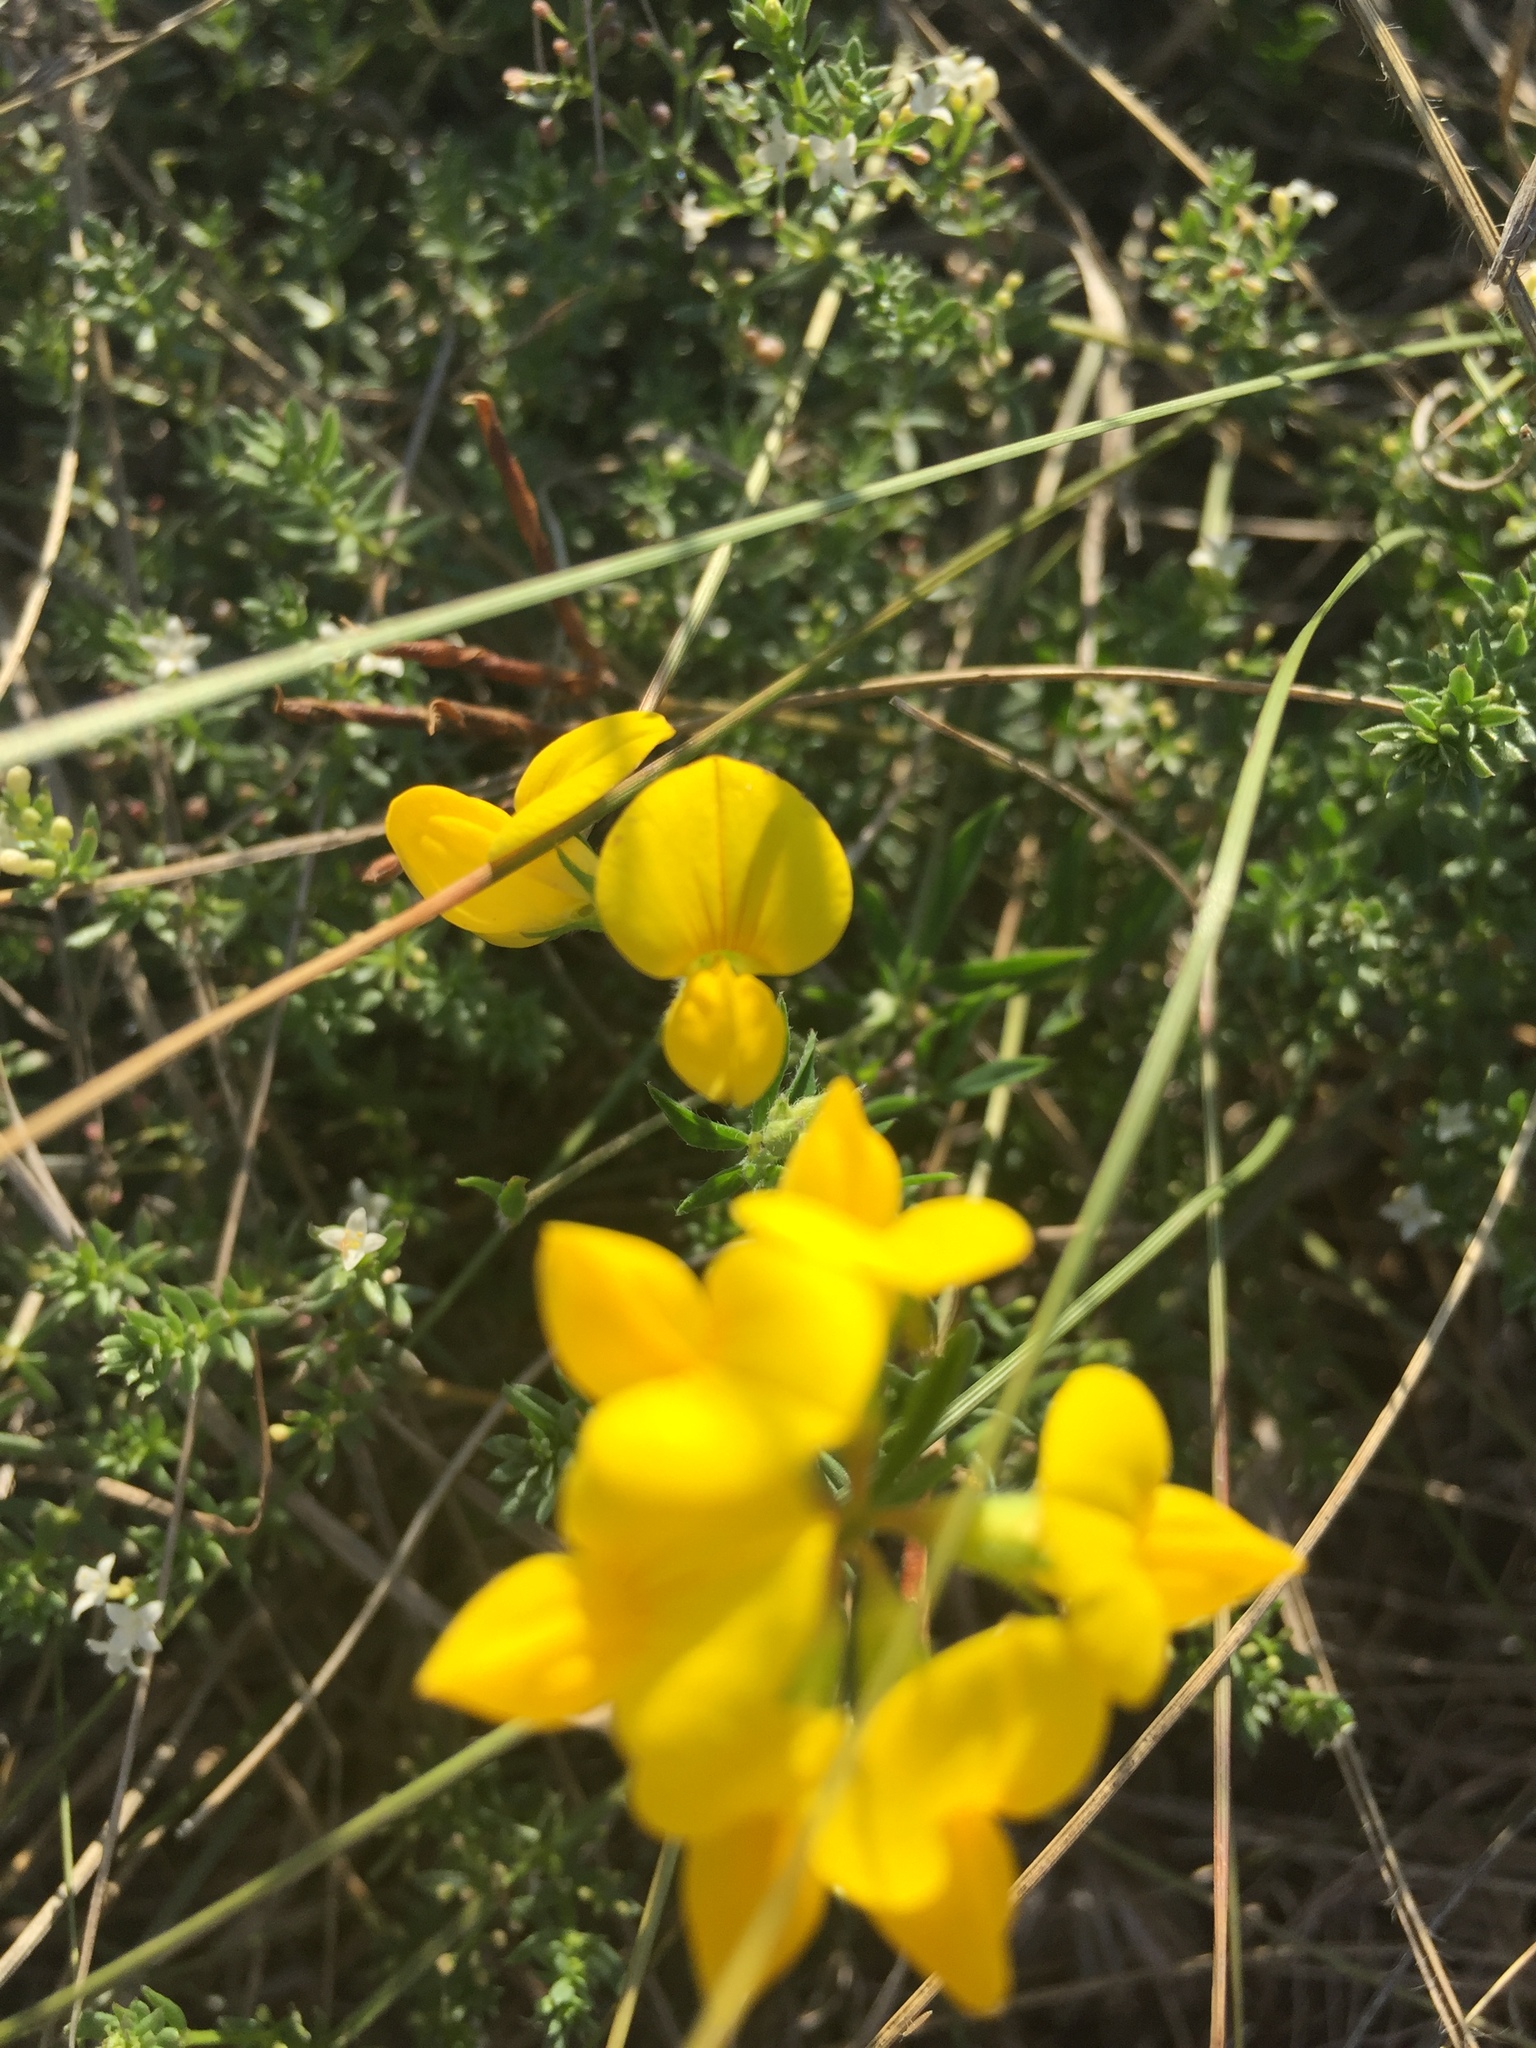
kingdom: Plantae
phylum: Tracheophyta
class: Magnoliopsida
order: Fabales
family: Fabaceae
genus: Lotus
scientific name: Lotus corniculatus
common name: Common bird's-foot-trefoil
